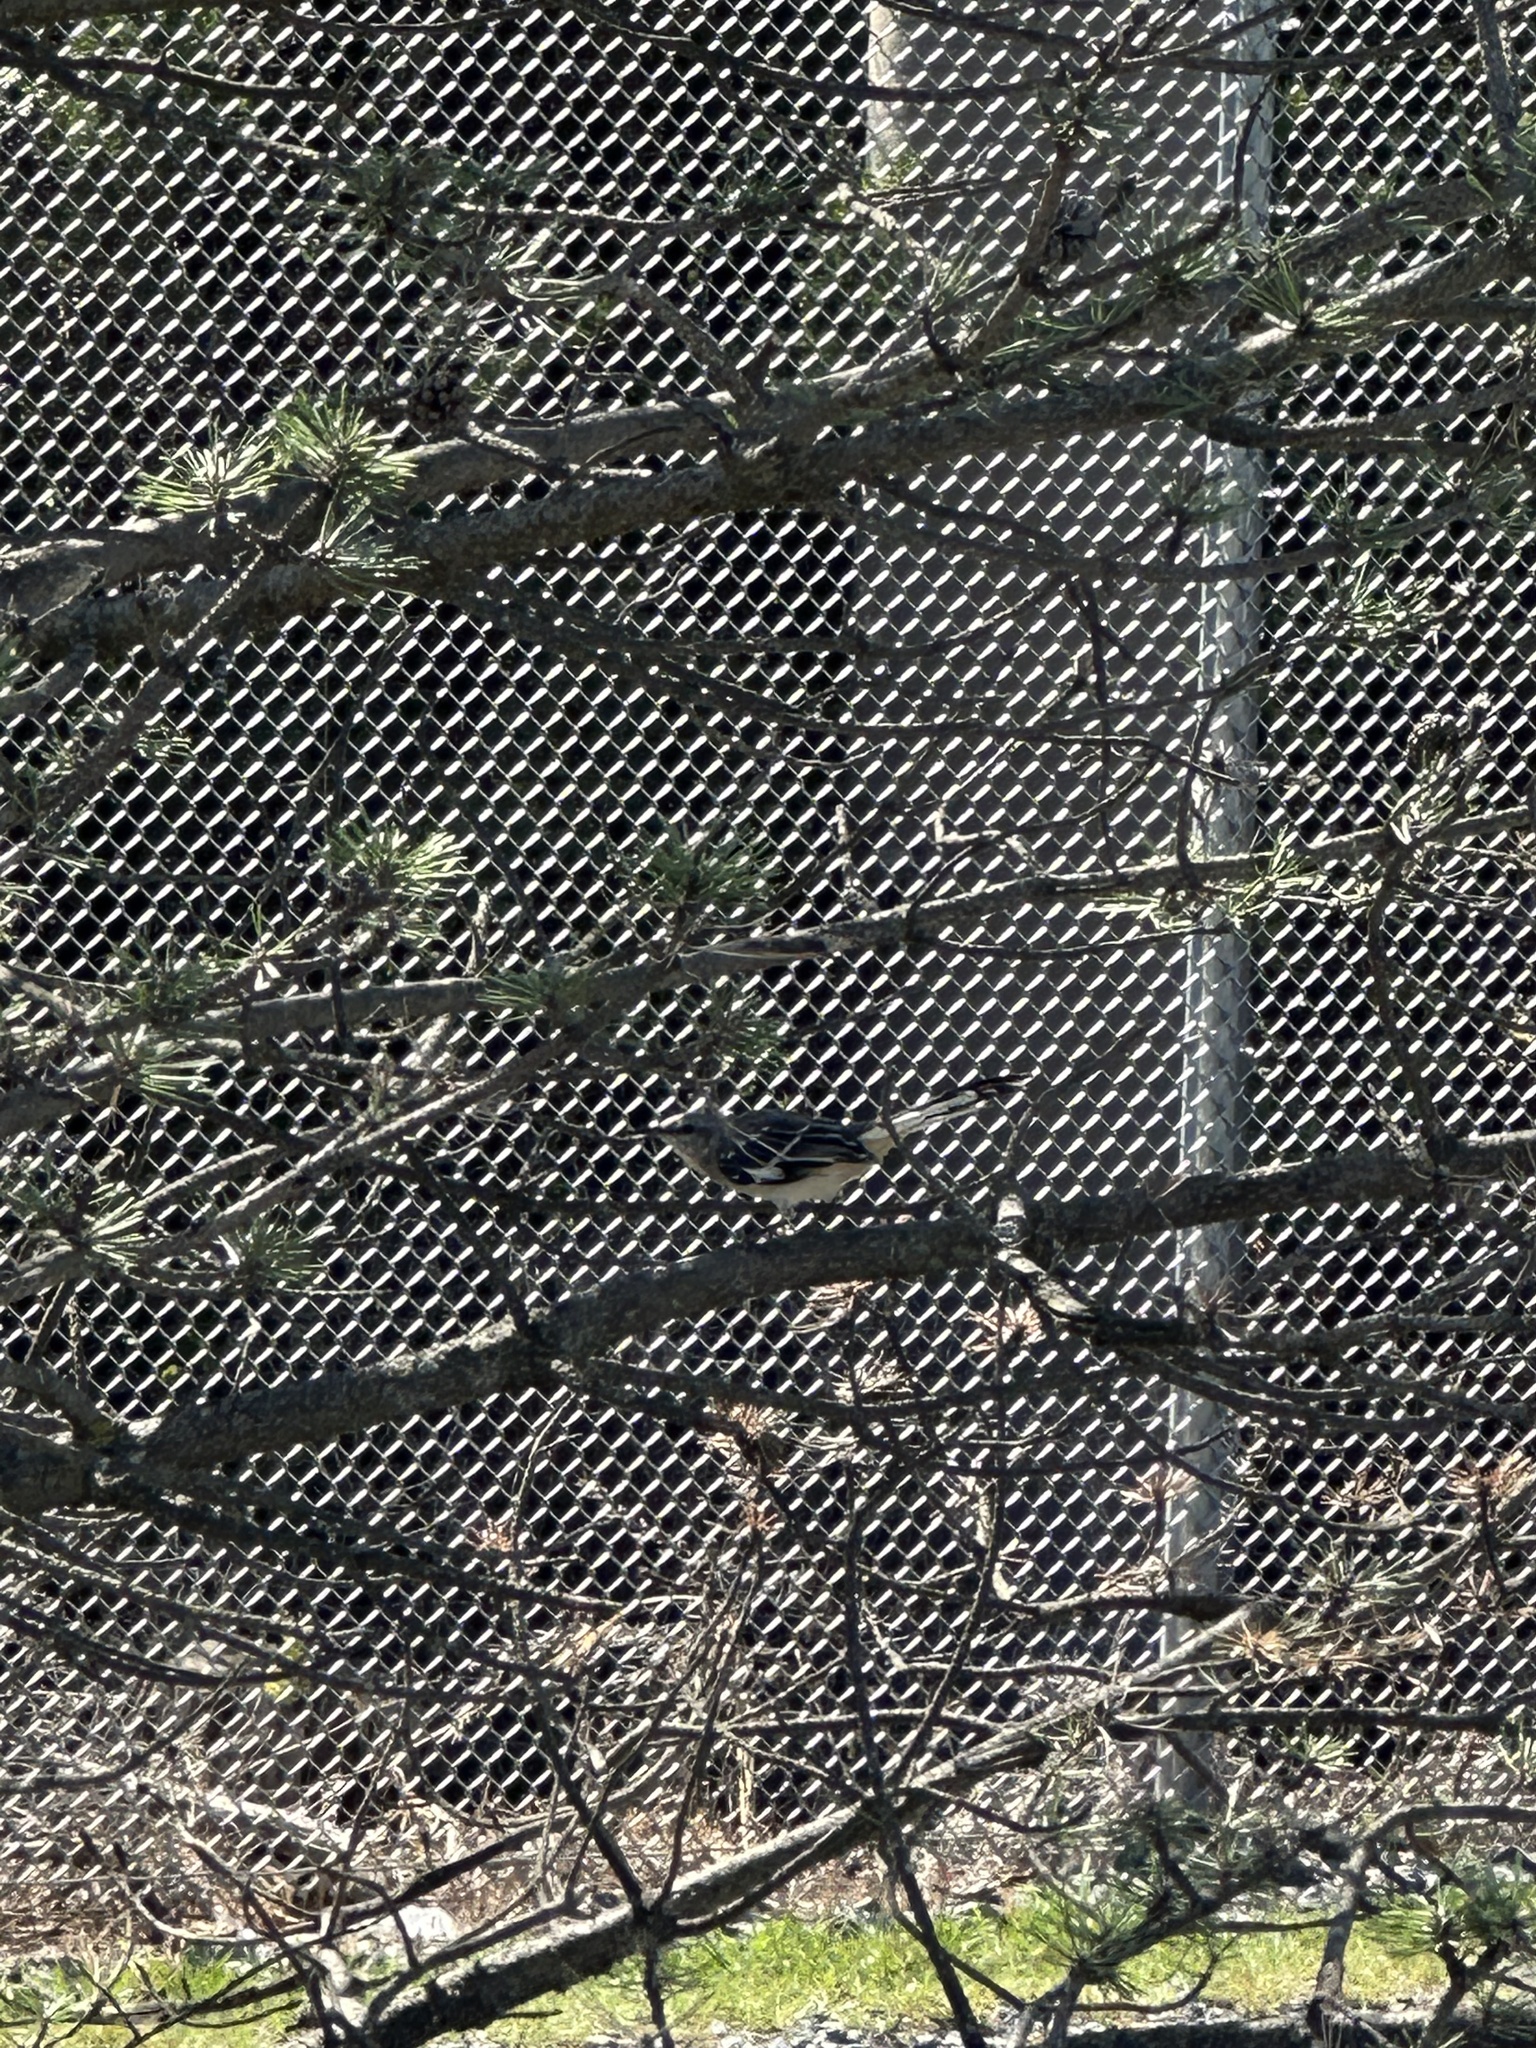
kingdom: Animalia
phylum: Chordata
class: Aves
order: Passeriformes
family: Mimidae
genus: Mimus
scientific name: Mimus polyglottos
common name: Northern mockingbird
